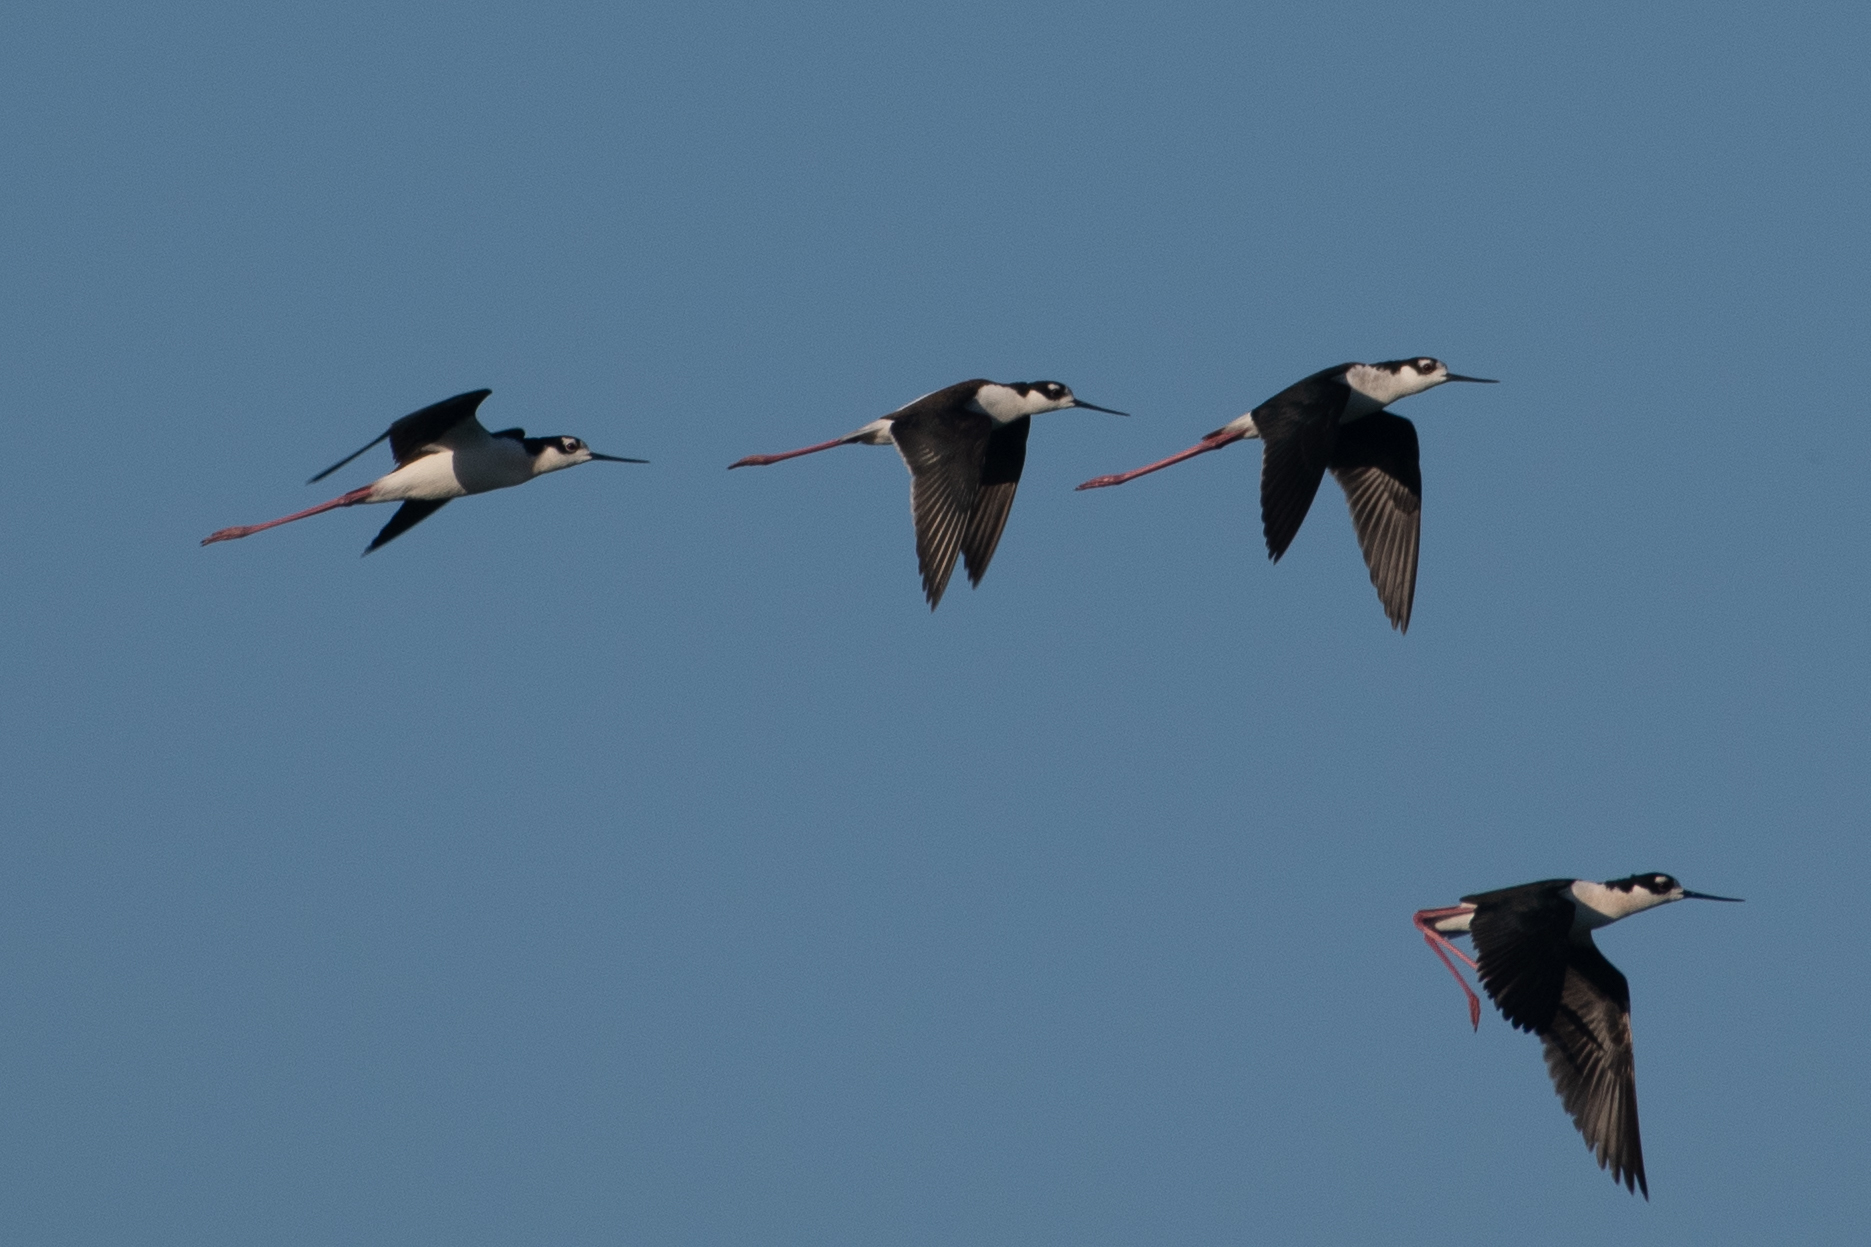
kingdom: Animalia
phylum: Chordata
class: Aves
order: Charadriiformes
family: Recurvirostridae
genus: Himantopus
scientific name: Himantopus mexicanus
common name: Black-necked stilt
